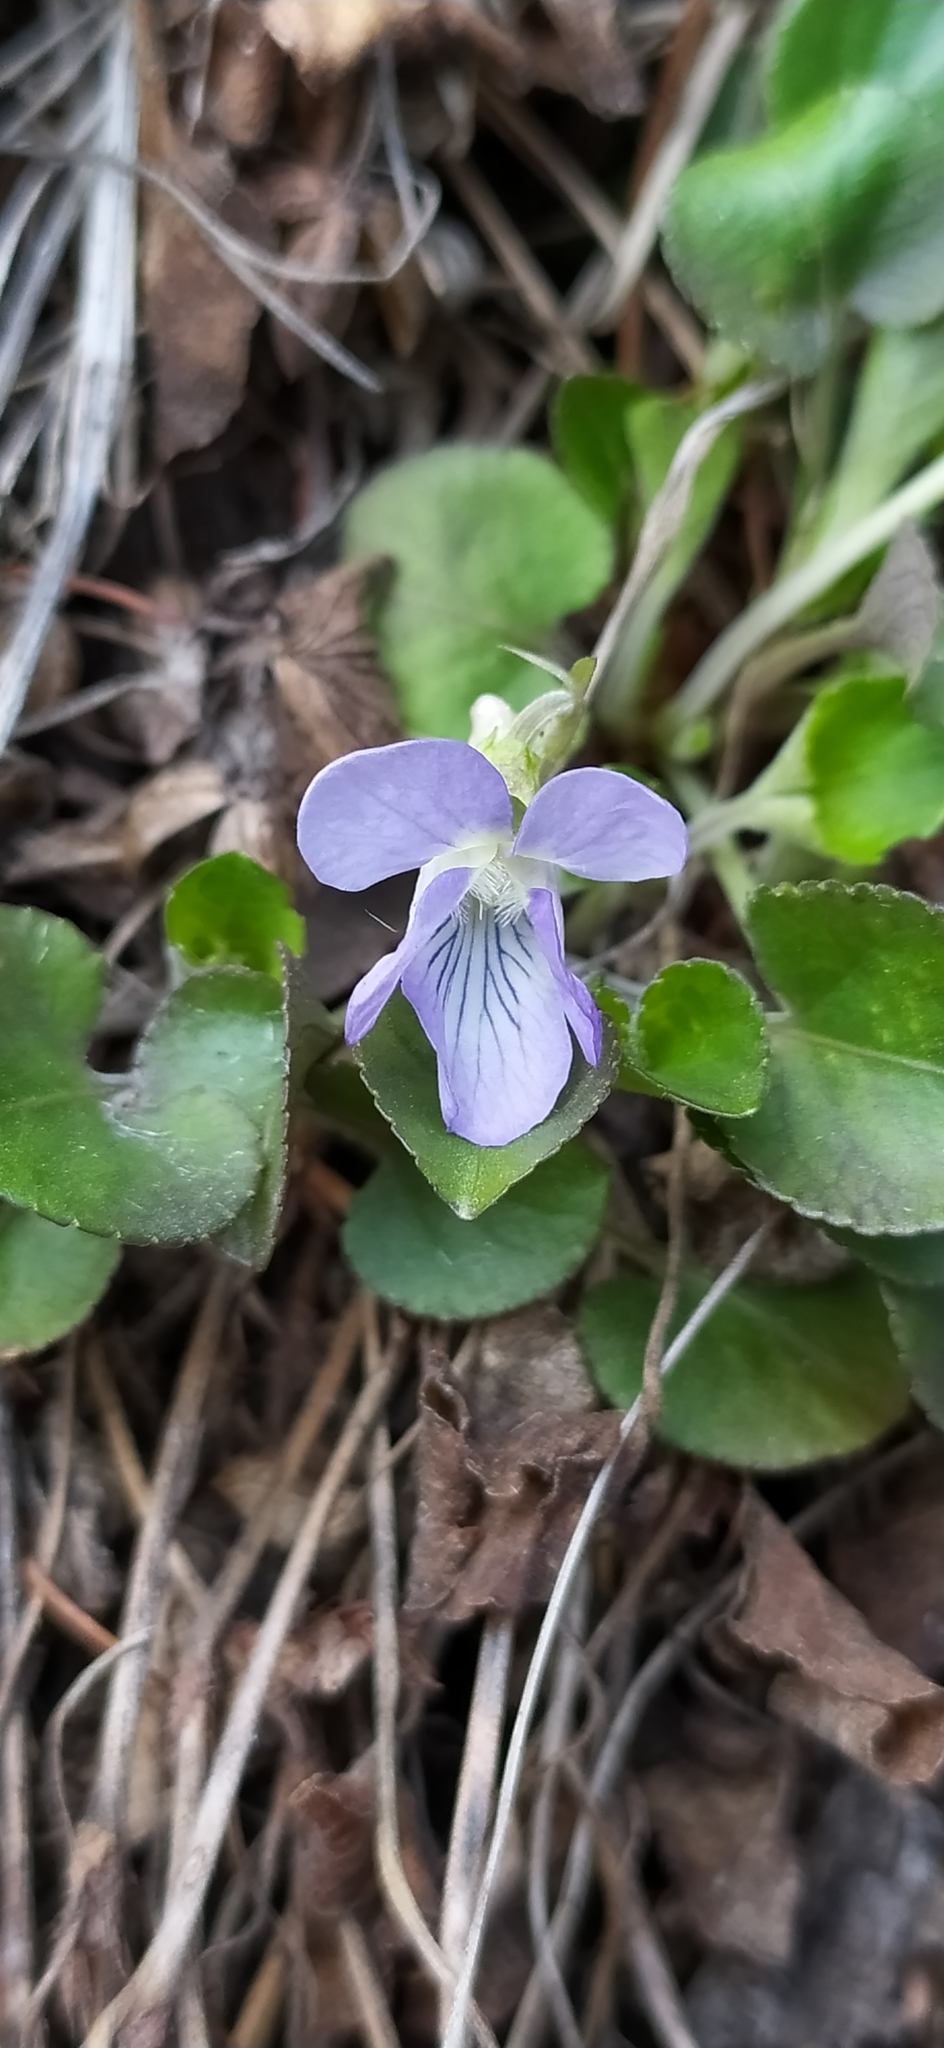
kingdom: Plantae
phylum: Tracheophyta
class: Magnoliopsida
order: Malpighiales
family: Violaceae
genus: Viola
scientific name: Viola rupestris
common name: Teesdale violet
